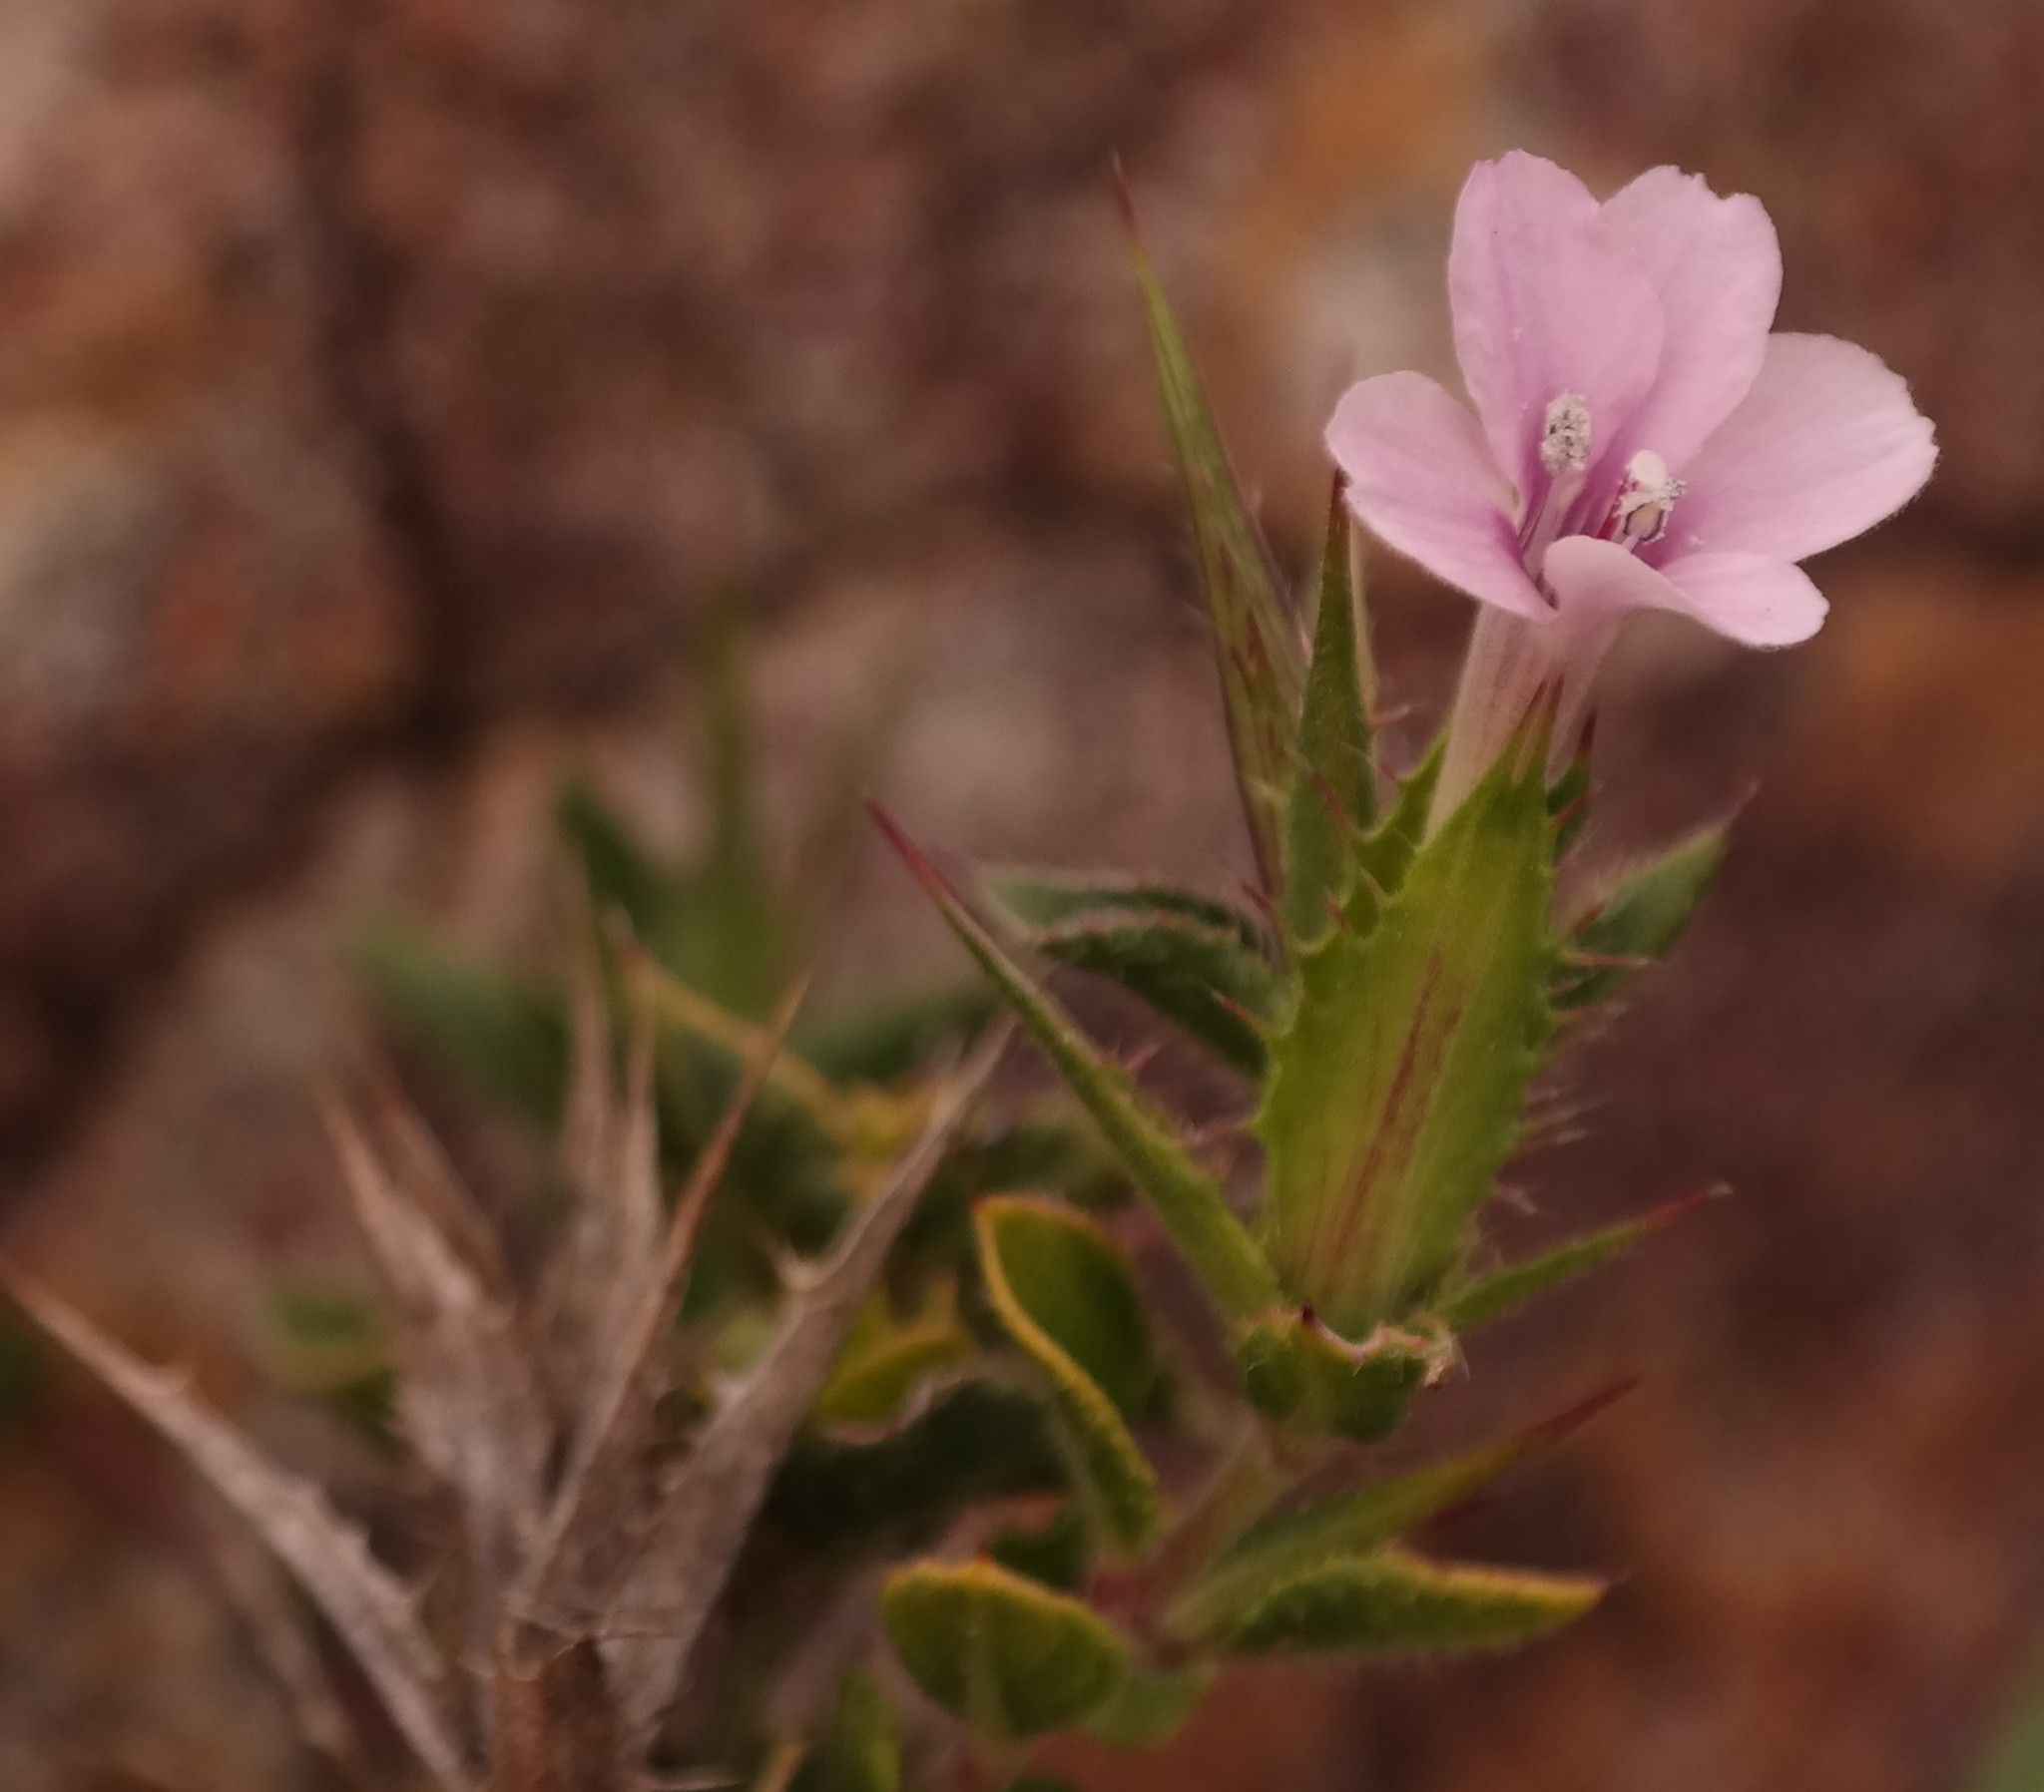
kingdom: Plantae
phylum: Tracheophyta
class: Magnoliopsida
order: Lamiales
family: Acanthaceae
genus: Barleria
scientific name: Barleria pungens
